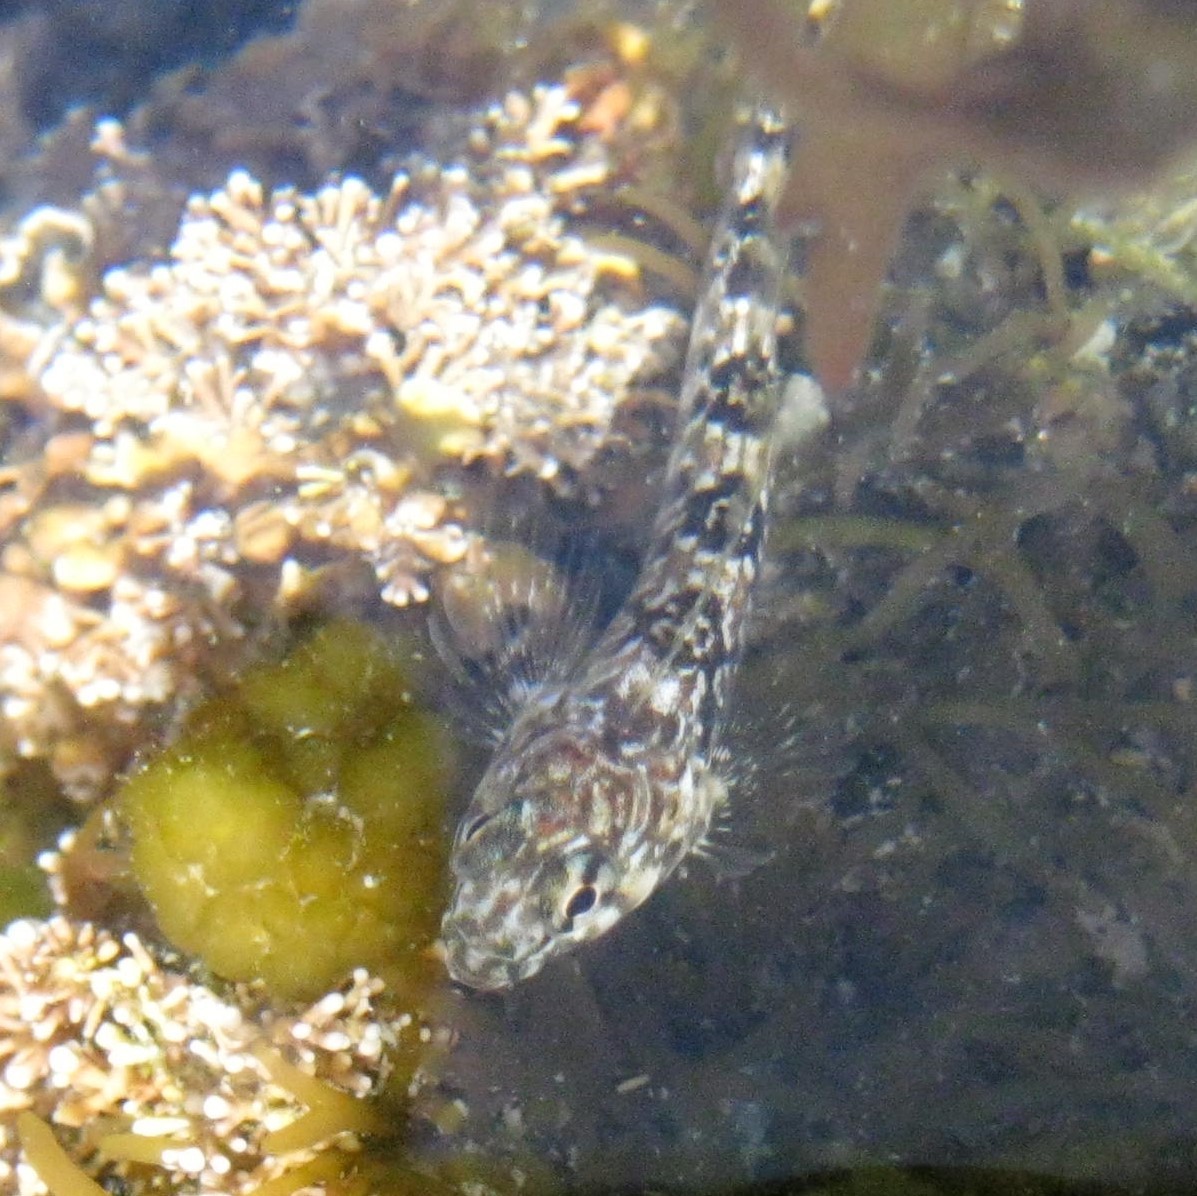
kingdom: Animalia
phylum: Chordata
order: Perciformes
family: Tripterygiidae
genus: Bellapiscis
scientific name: Bellapiscis medius
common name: Twister
